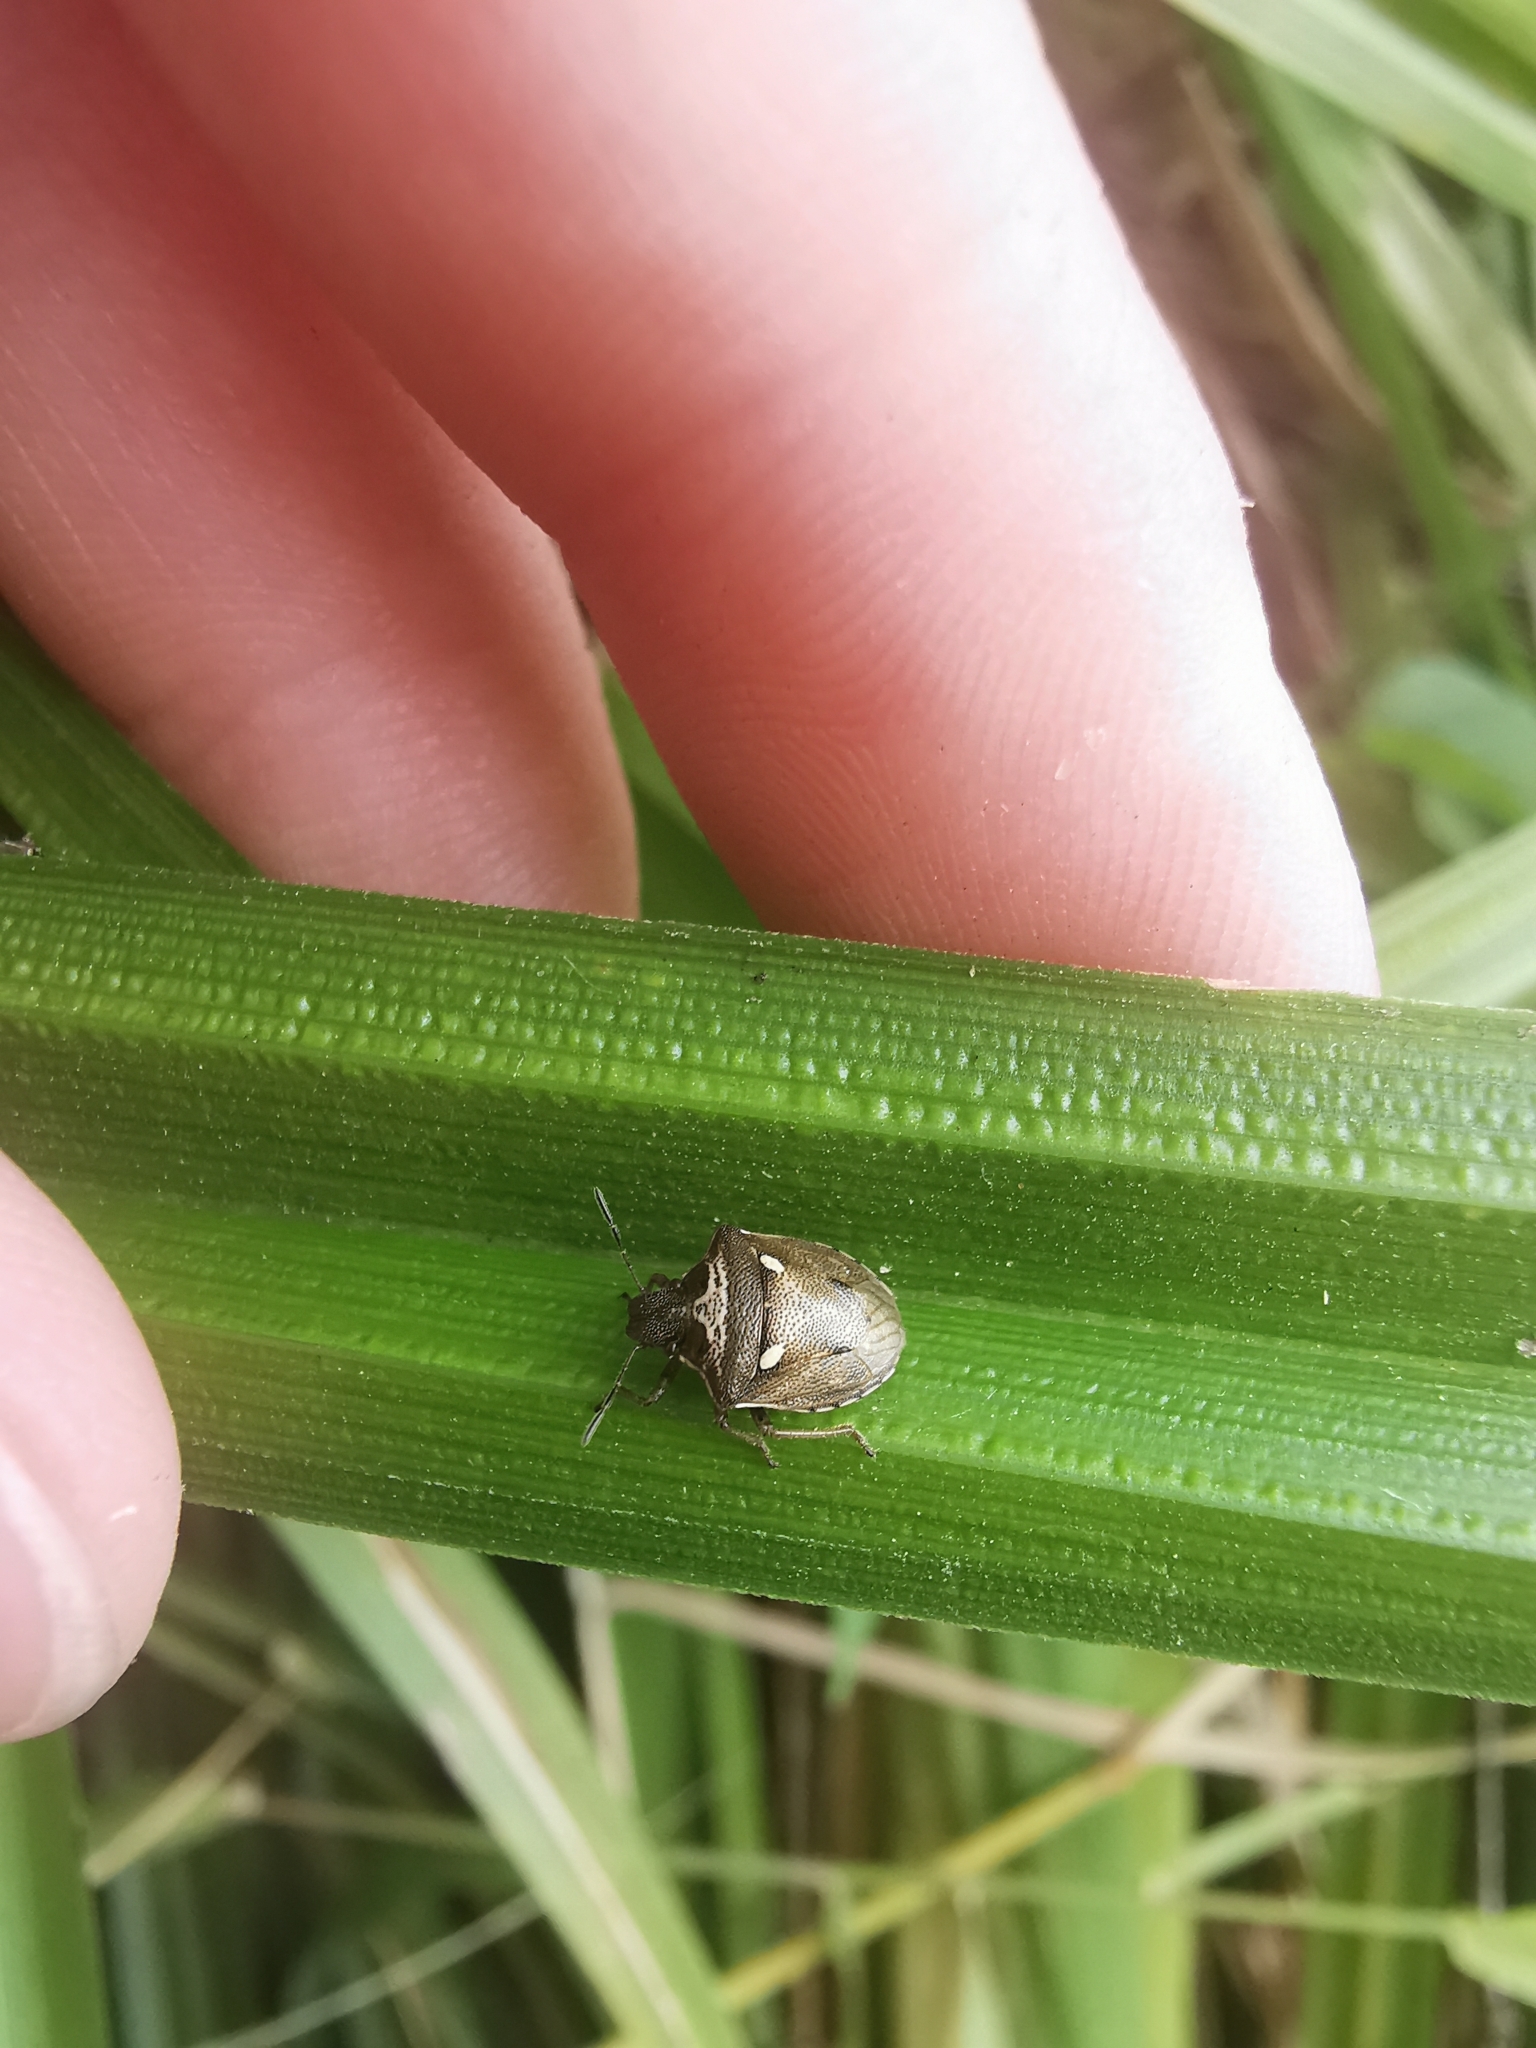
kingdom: Animalia
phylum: Arthropoda
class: Insecta
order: Hemiptera
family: Pentatomidae
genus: Eysarcoris
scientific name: Eysarcoris aeneus
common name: New forest shieldbug
